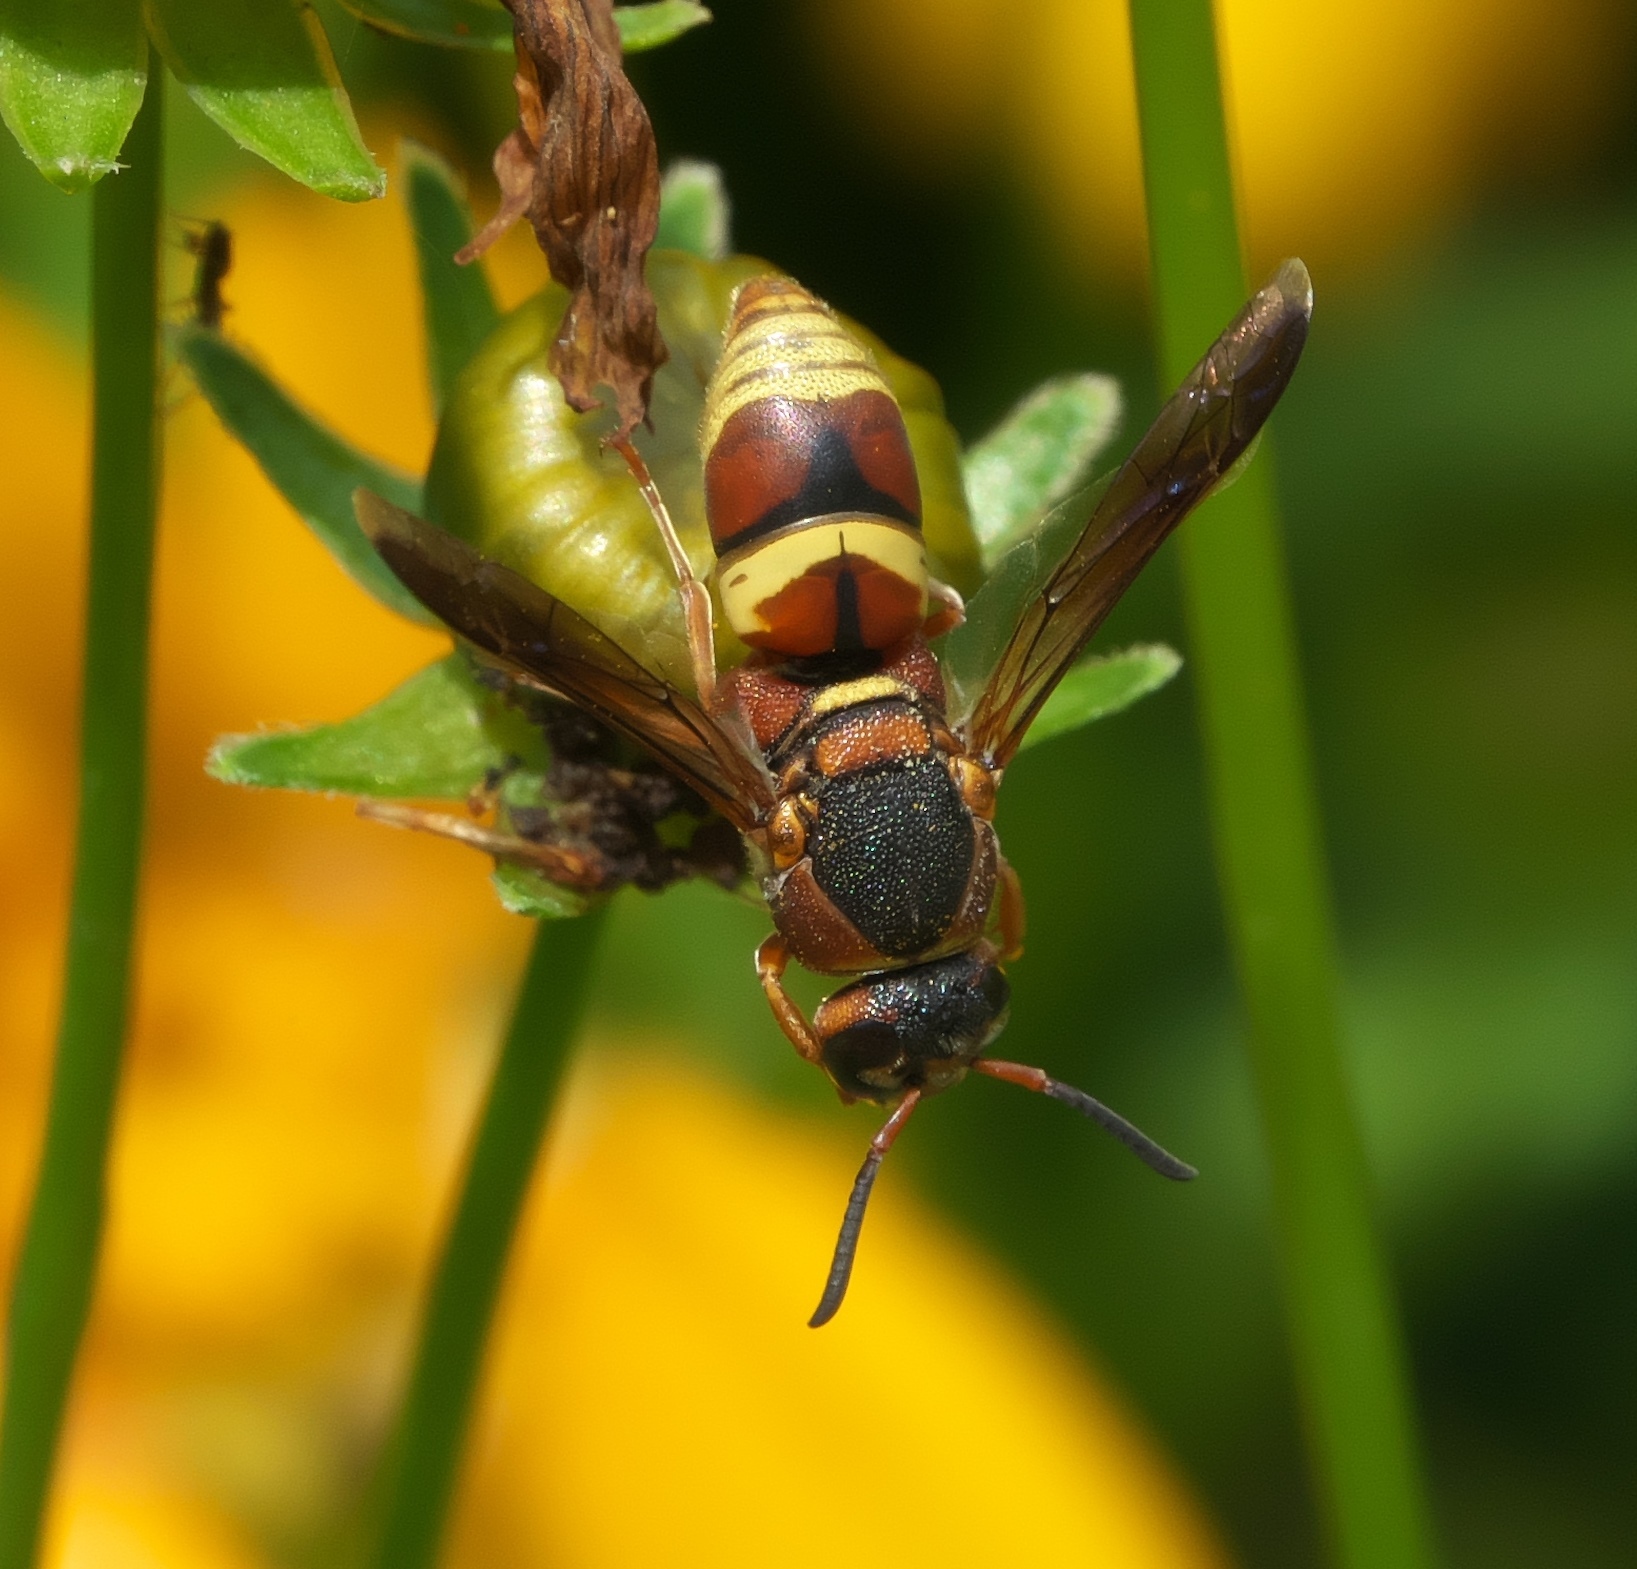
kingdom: Animalia
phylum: Arthropoda
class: Insecta
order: Hymenoptera
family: Eumenidae
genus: Euodynerus
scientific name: Euodynerus hidalgo
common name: Wasp
